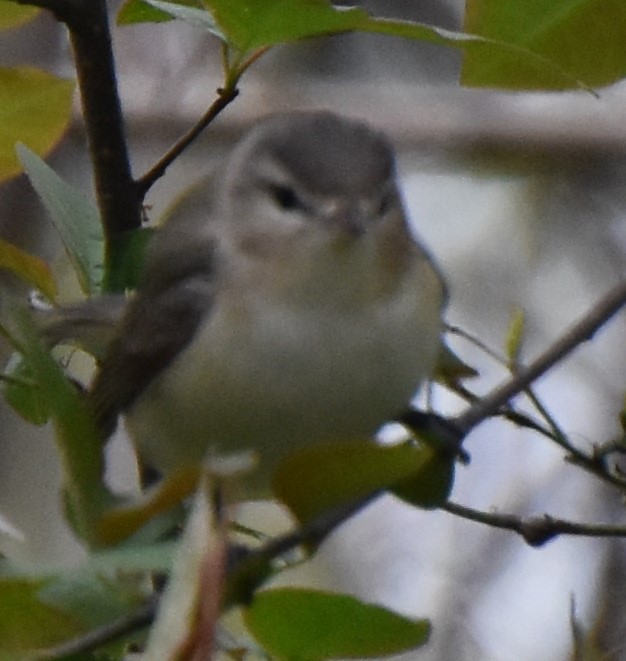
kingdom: Animalia
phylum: Chordata
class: Aves
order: Passeriformes
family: Vireonidae
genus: Vireo
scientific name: Vireo gilvus
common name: Warbling vireo
